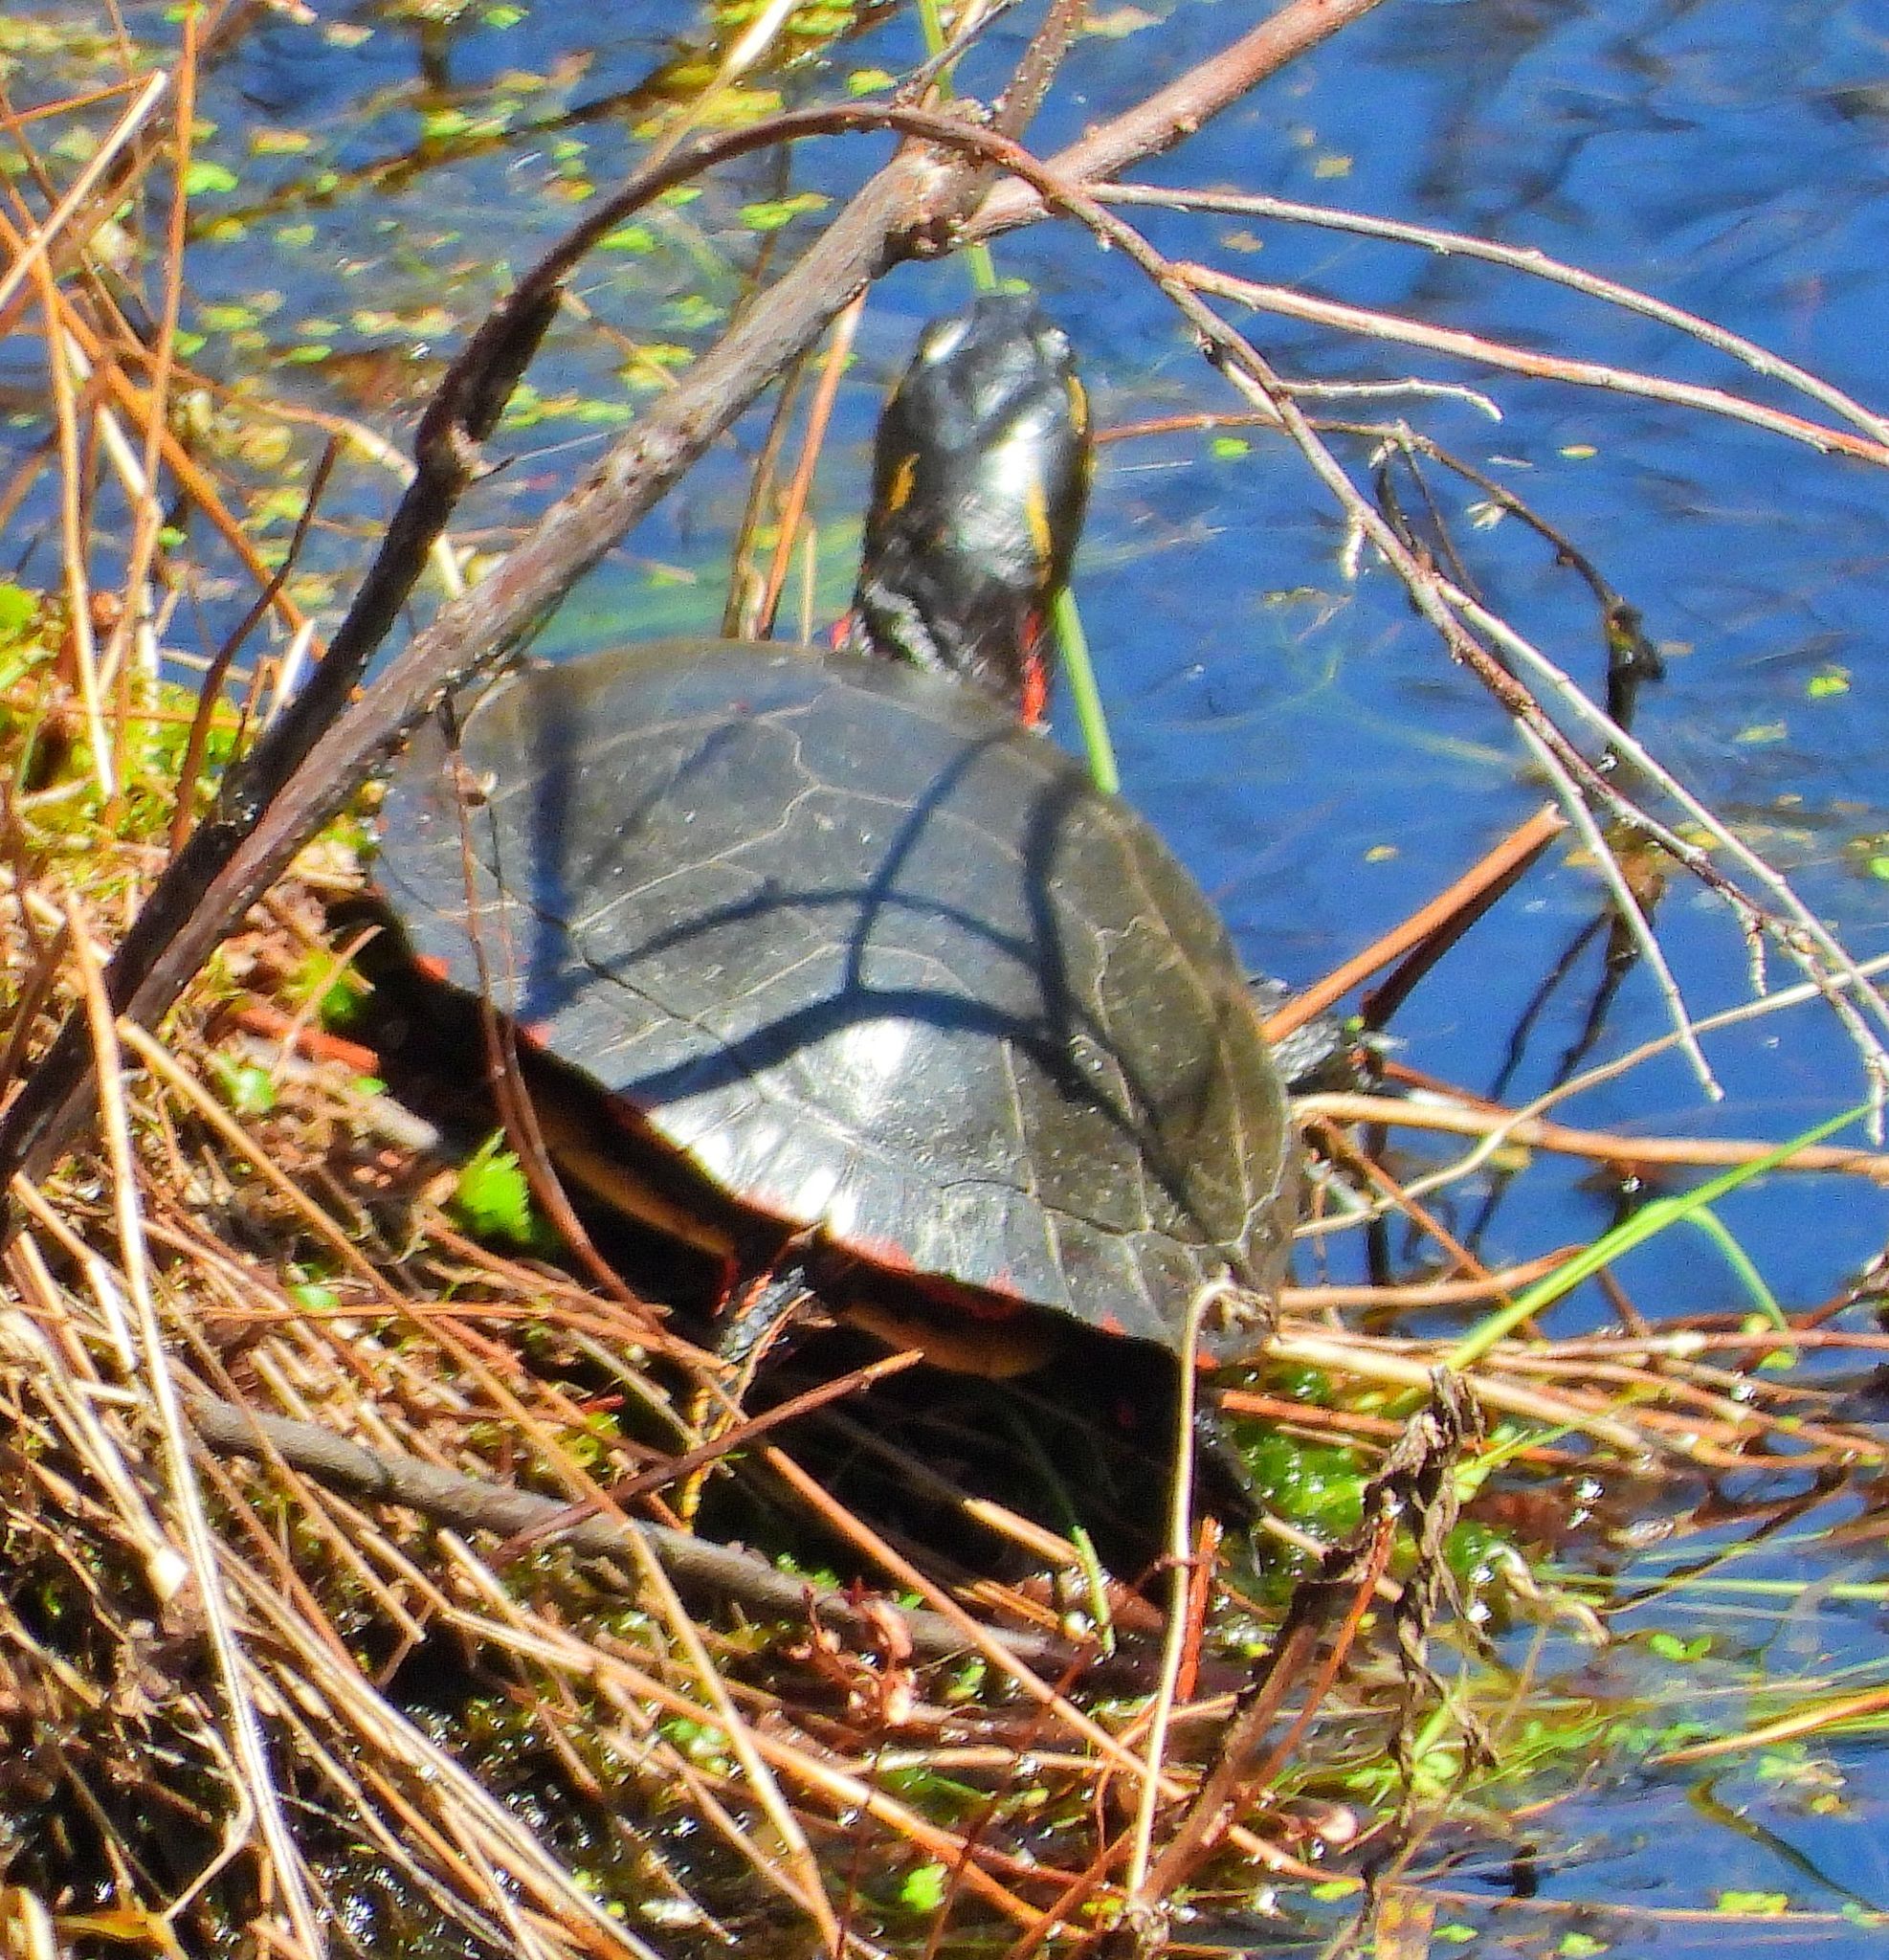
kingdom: Animalia
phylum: Chordata
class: Testudines
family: Emydidae
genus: Chrysemys
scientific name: Chrysemys picta
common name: Painted turtle
